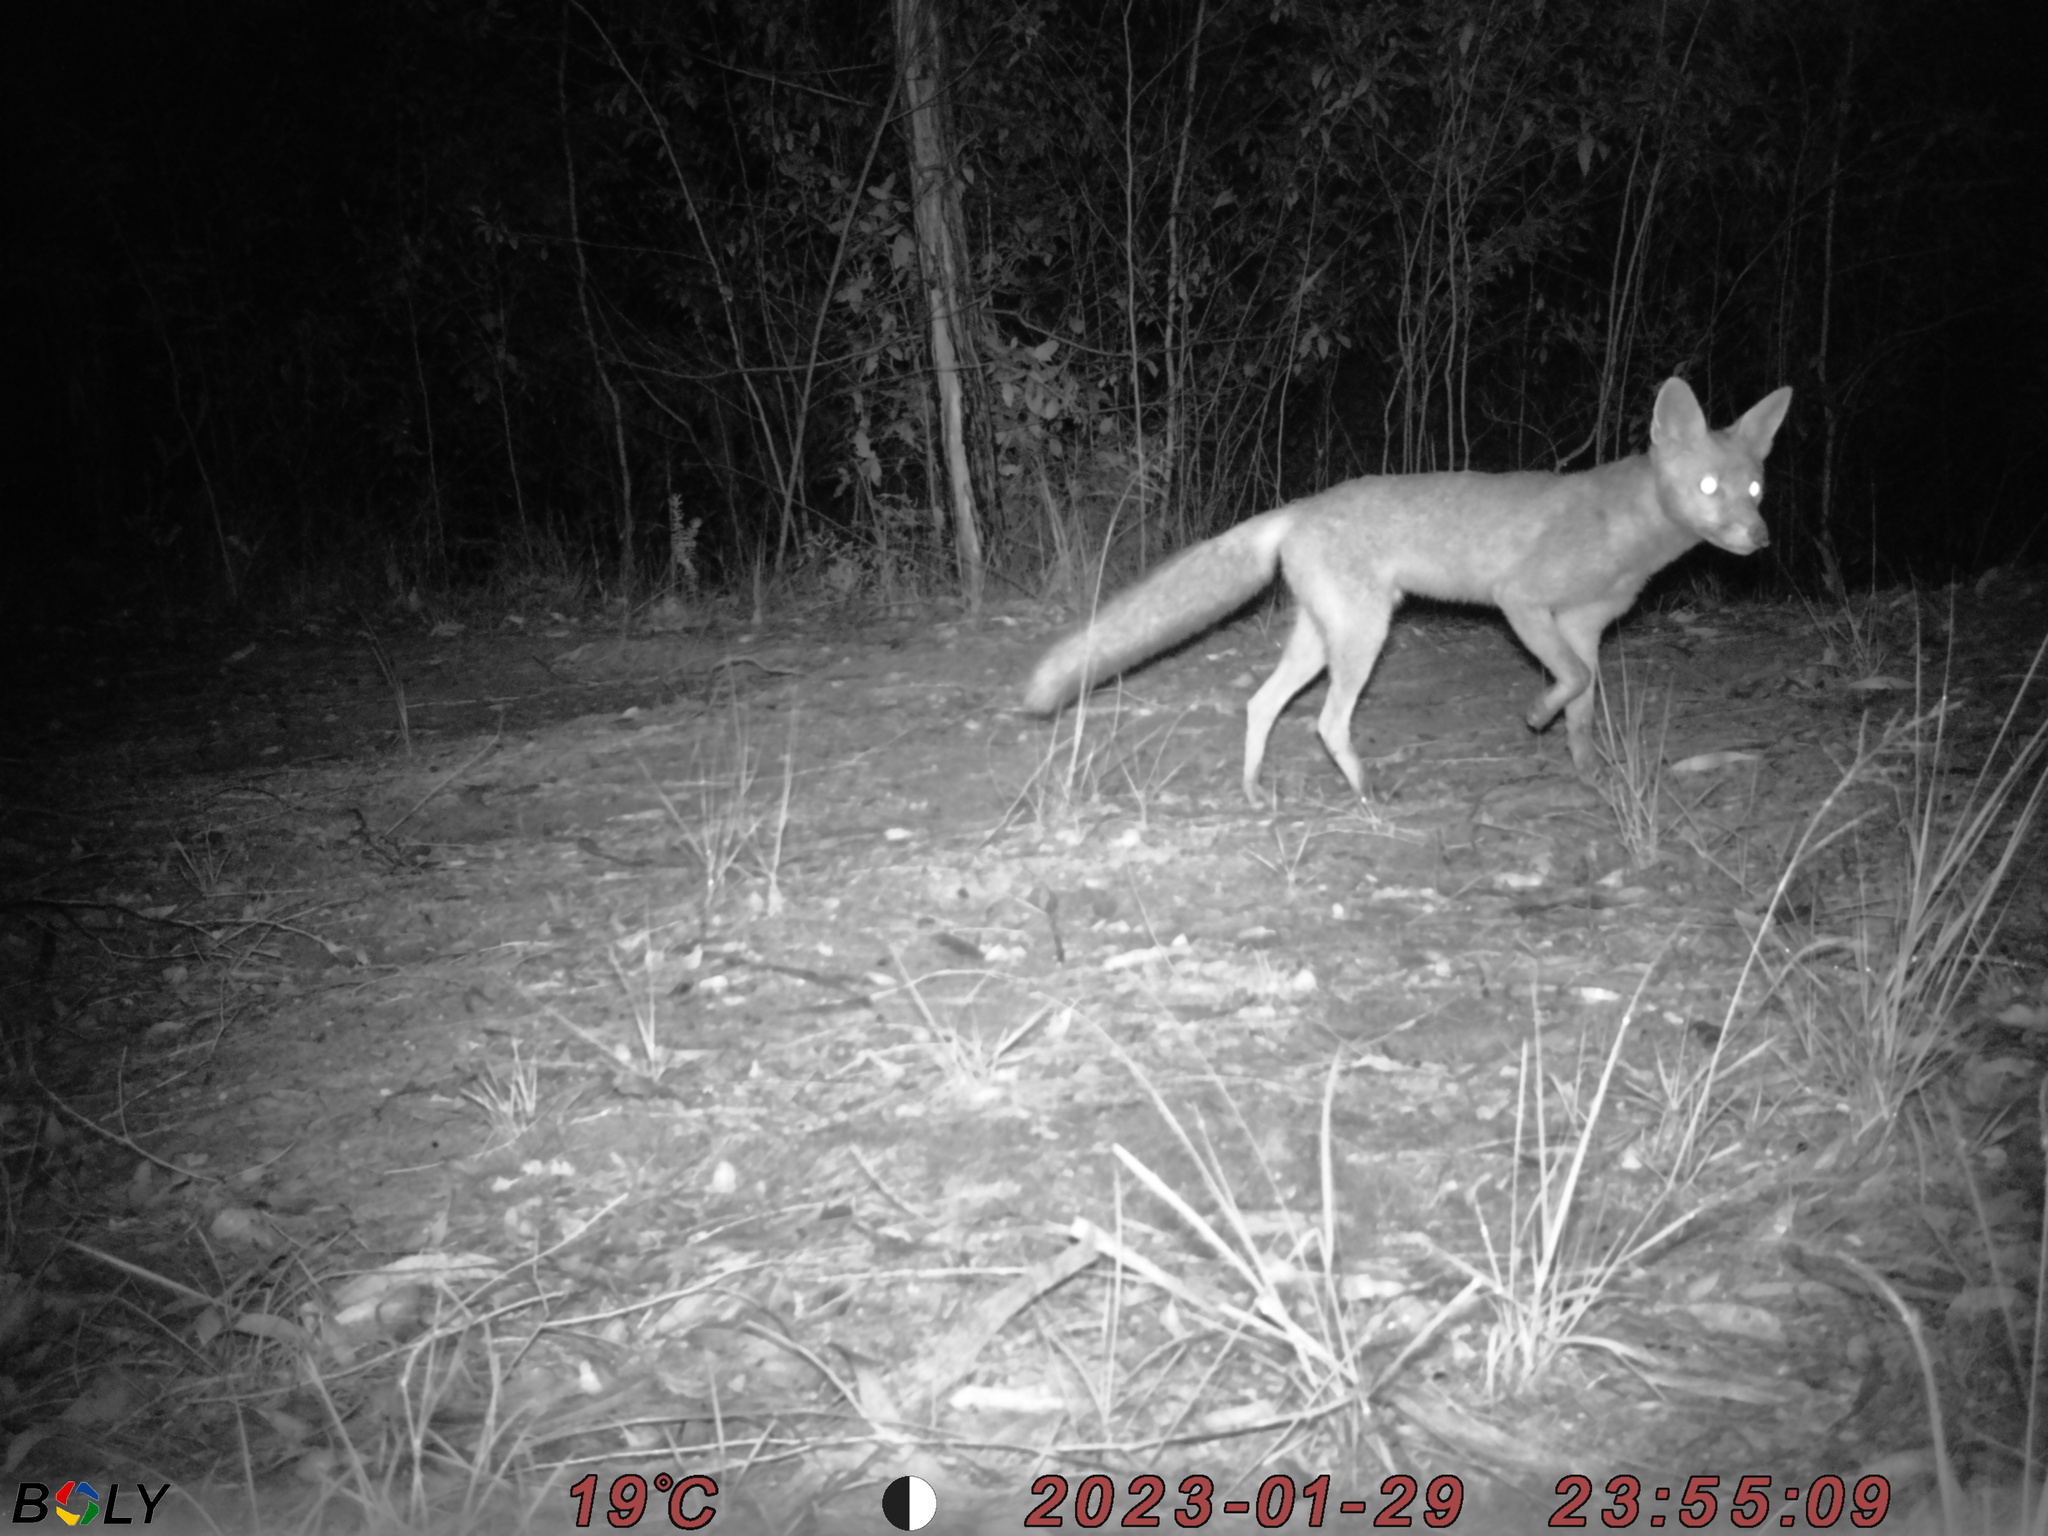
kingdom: Animalia
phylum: Chordata
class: Mammalia
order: Carnivora
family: Canidae
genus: Vulpes
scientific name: Vulpes vulpes
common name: Red fox
